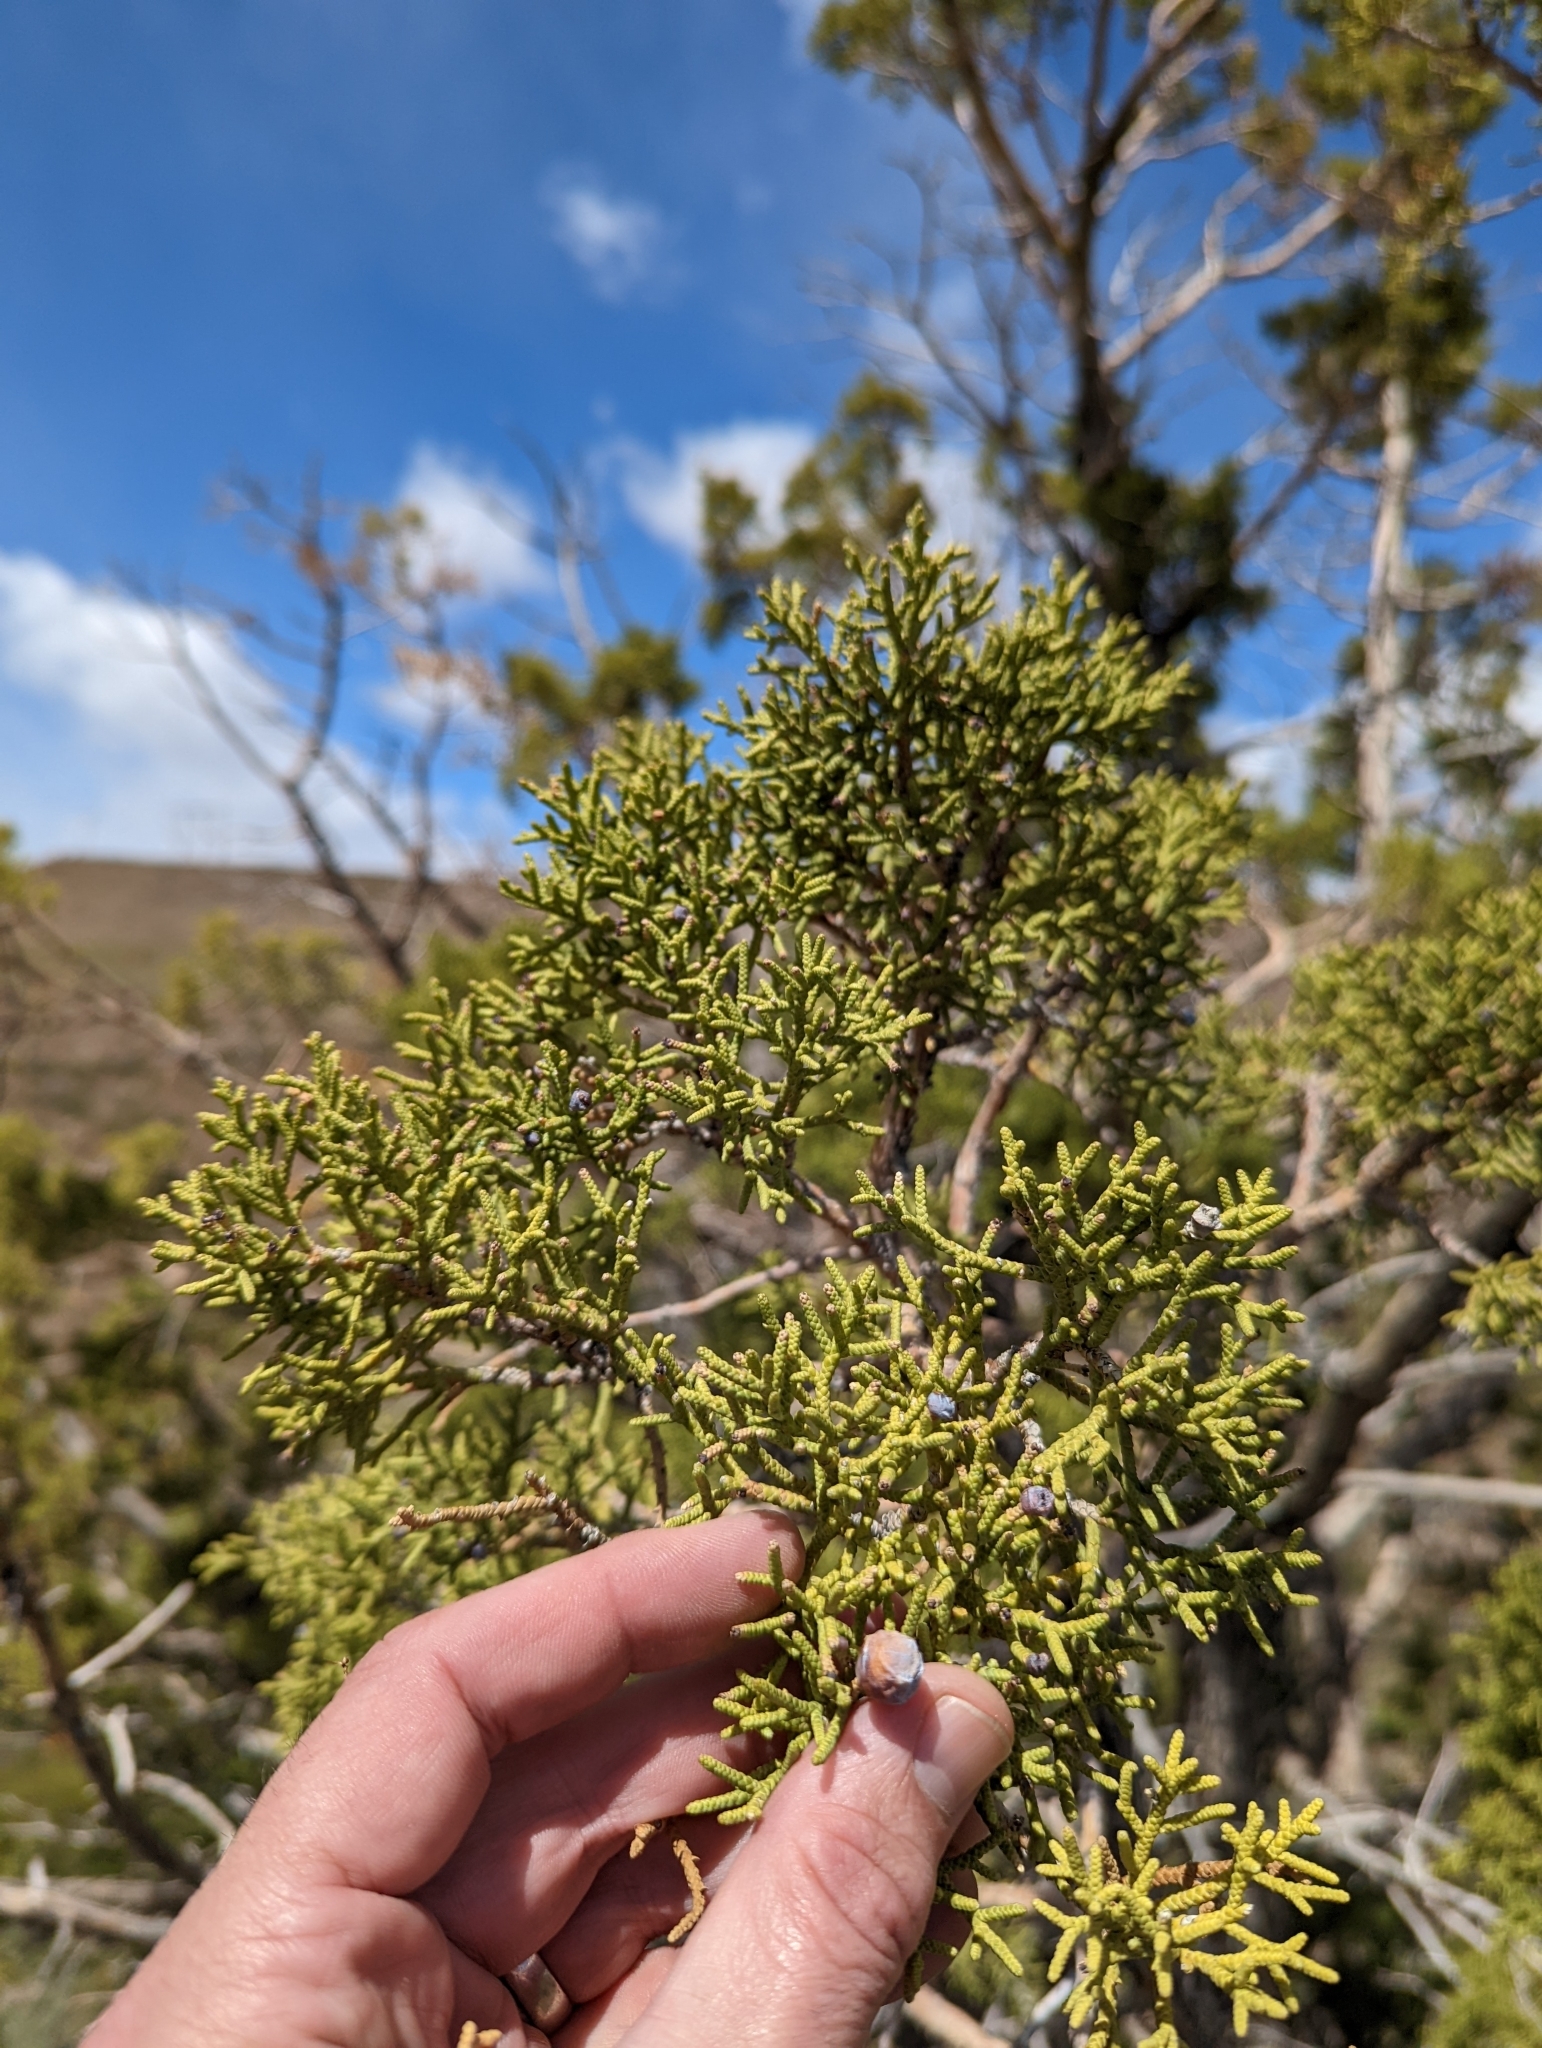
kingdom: Plantae
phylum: Tracheophyta
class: Pinopsida
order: Pinales
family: Cupressaceae
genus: Juniperus
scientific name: Juniperus osteosperma
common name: Utah juniper
